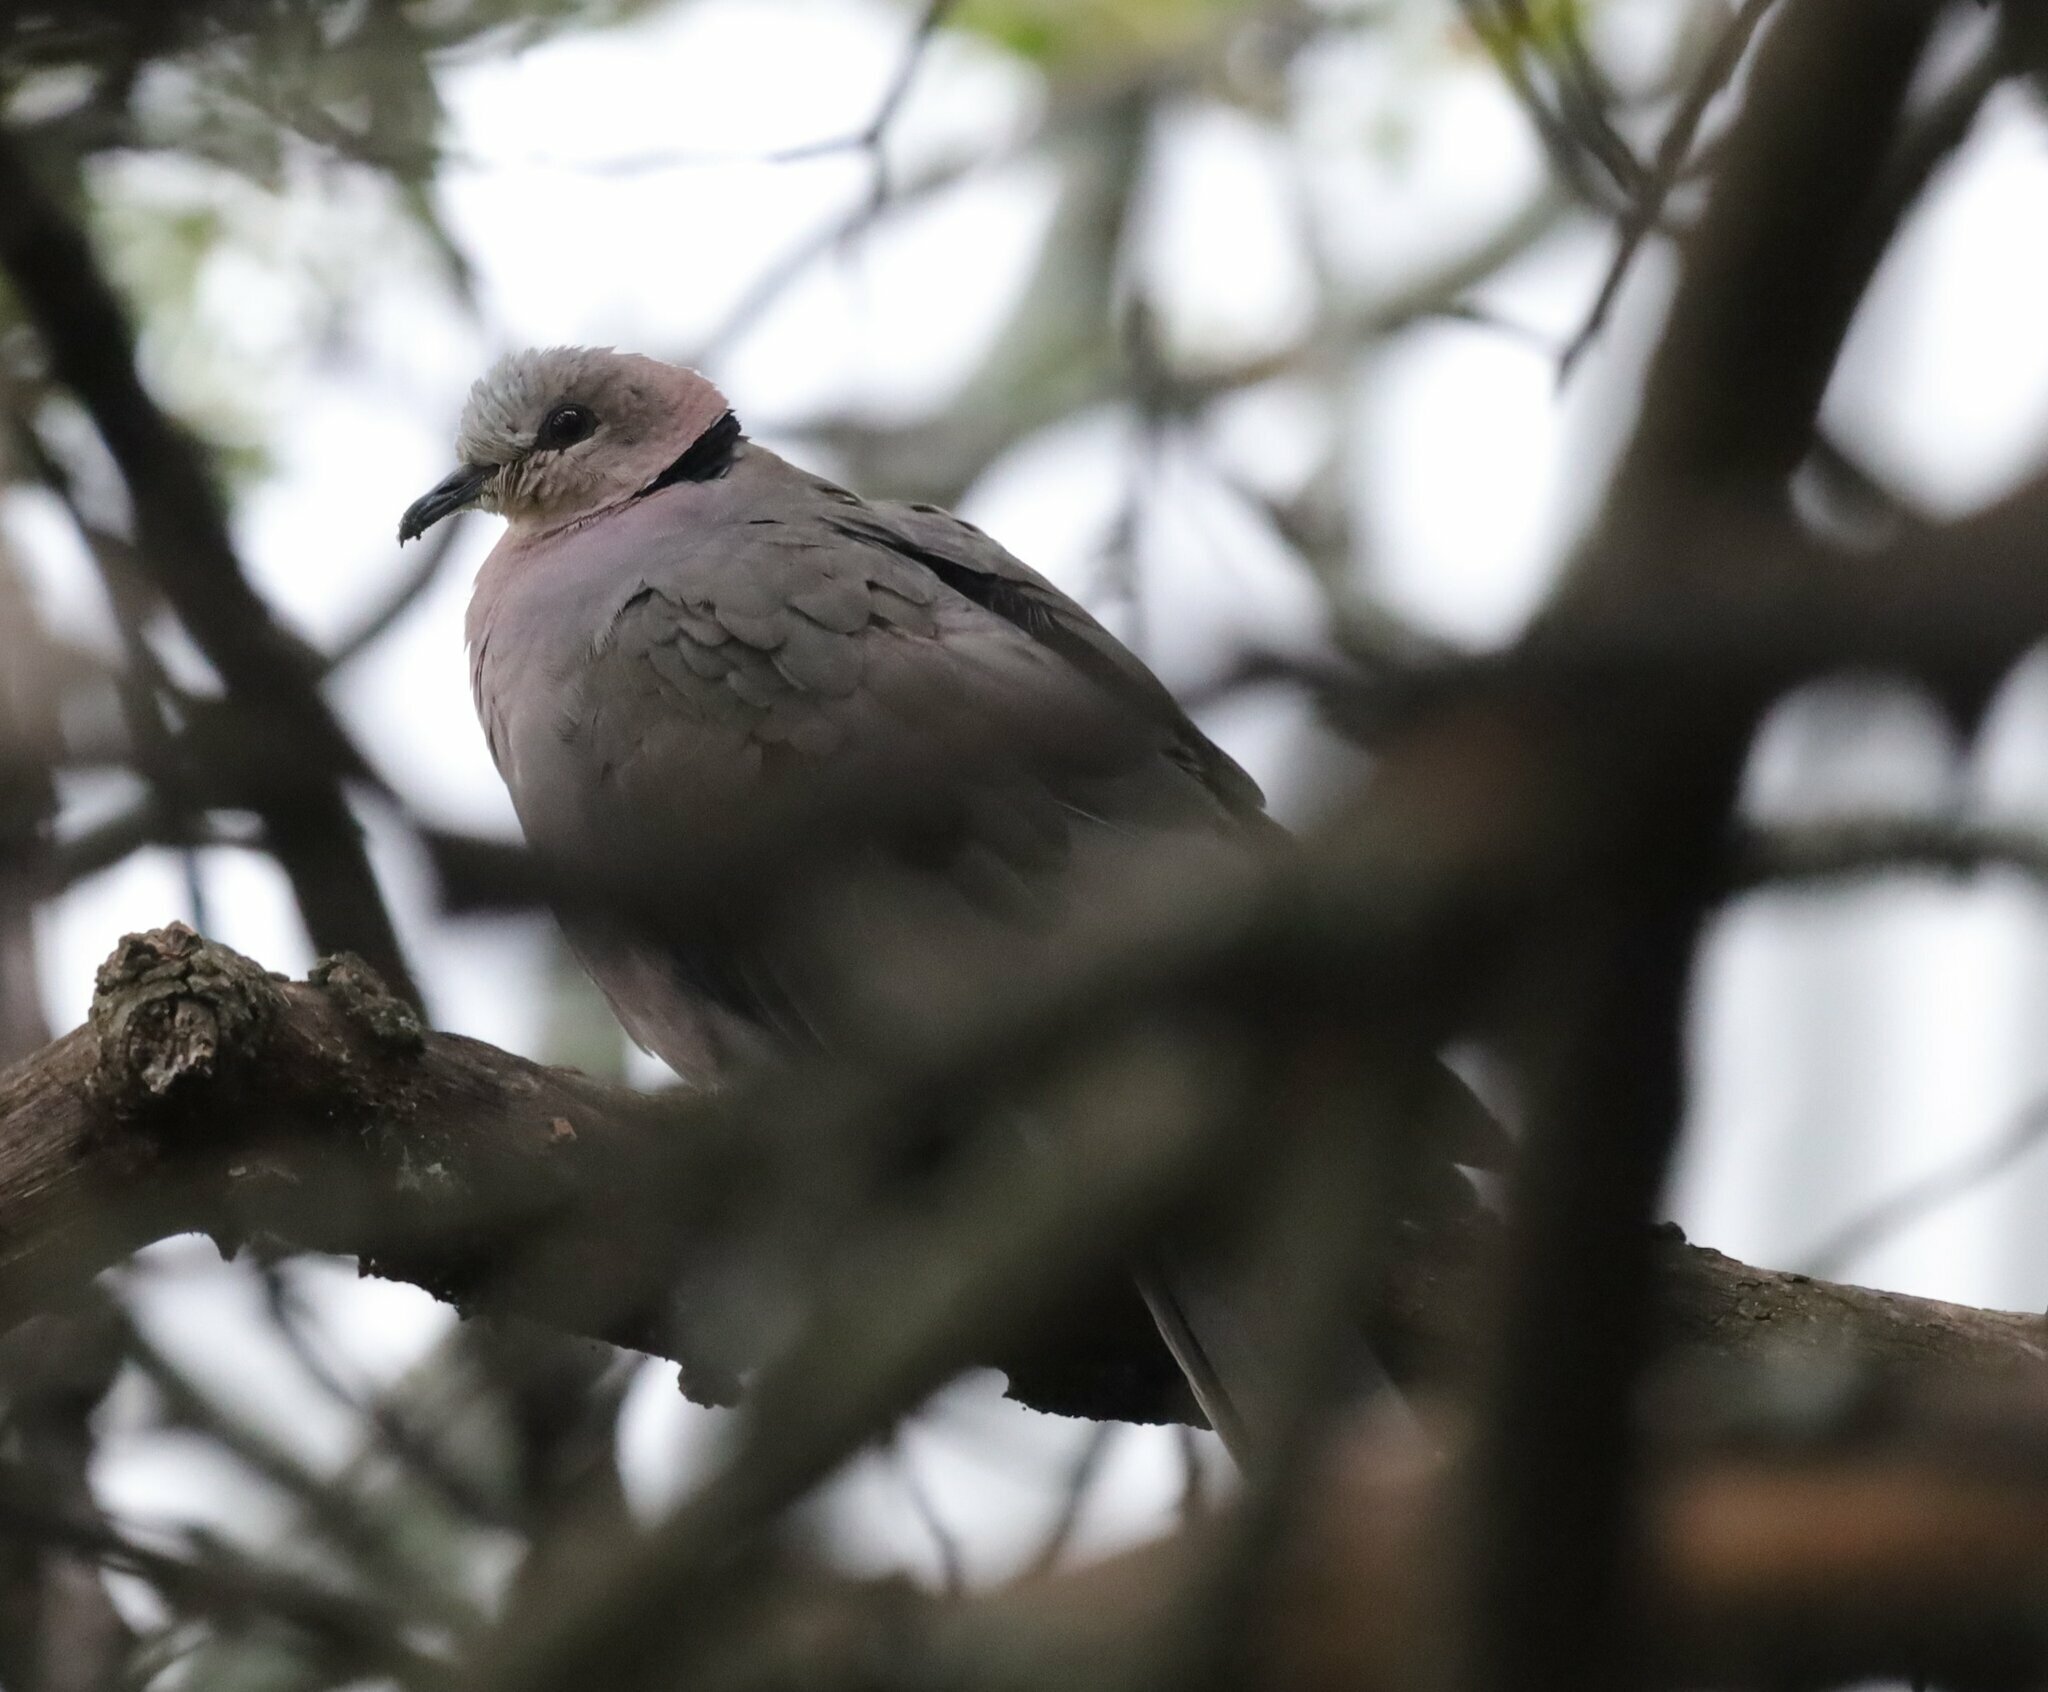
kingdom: Animalia
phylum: Chordata
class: Aves
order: Columbiformes
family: Columbidae
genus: Streptopelia
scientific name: Streptopelia semitorquata
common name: Red-eyed dove
